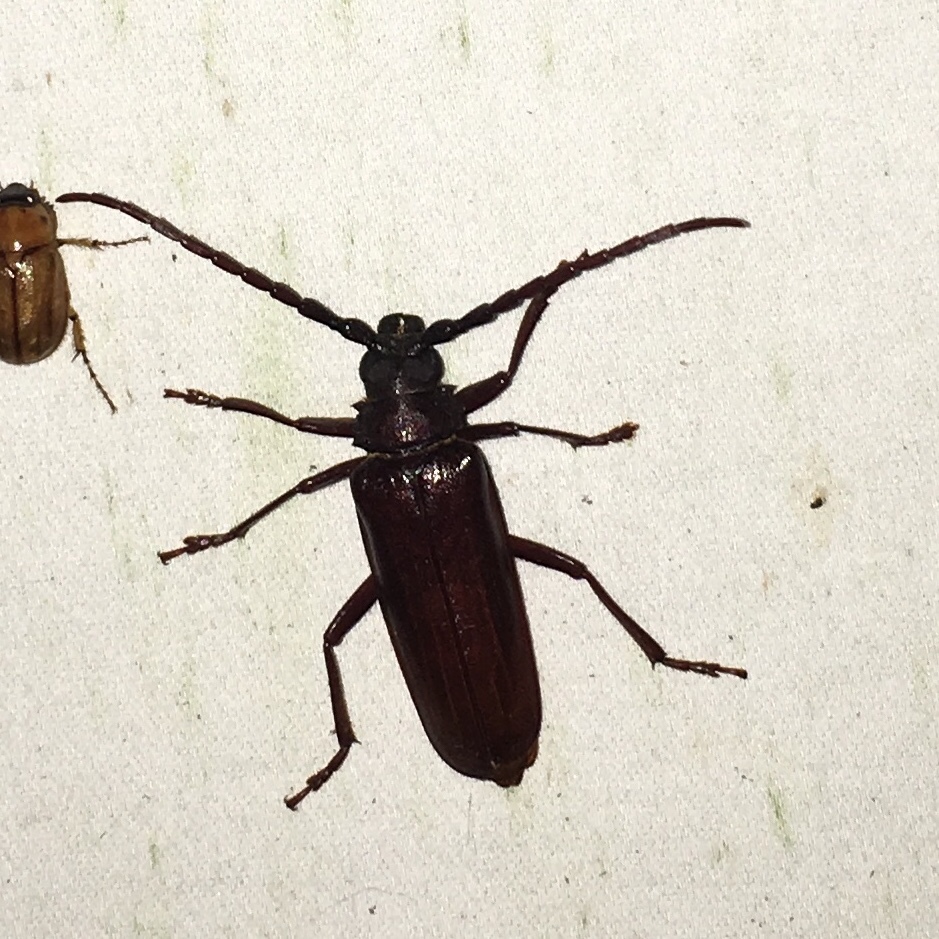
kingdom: Animalia
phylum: Arthropoda
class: Insecta
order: Coleoptera
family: Cerambycidae
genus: Orthosoma
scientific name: Orthosoma brunneum
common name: Brown prionid beetle
